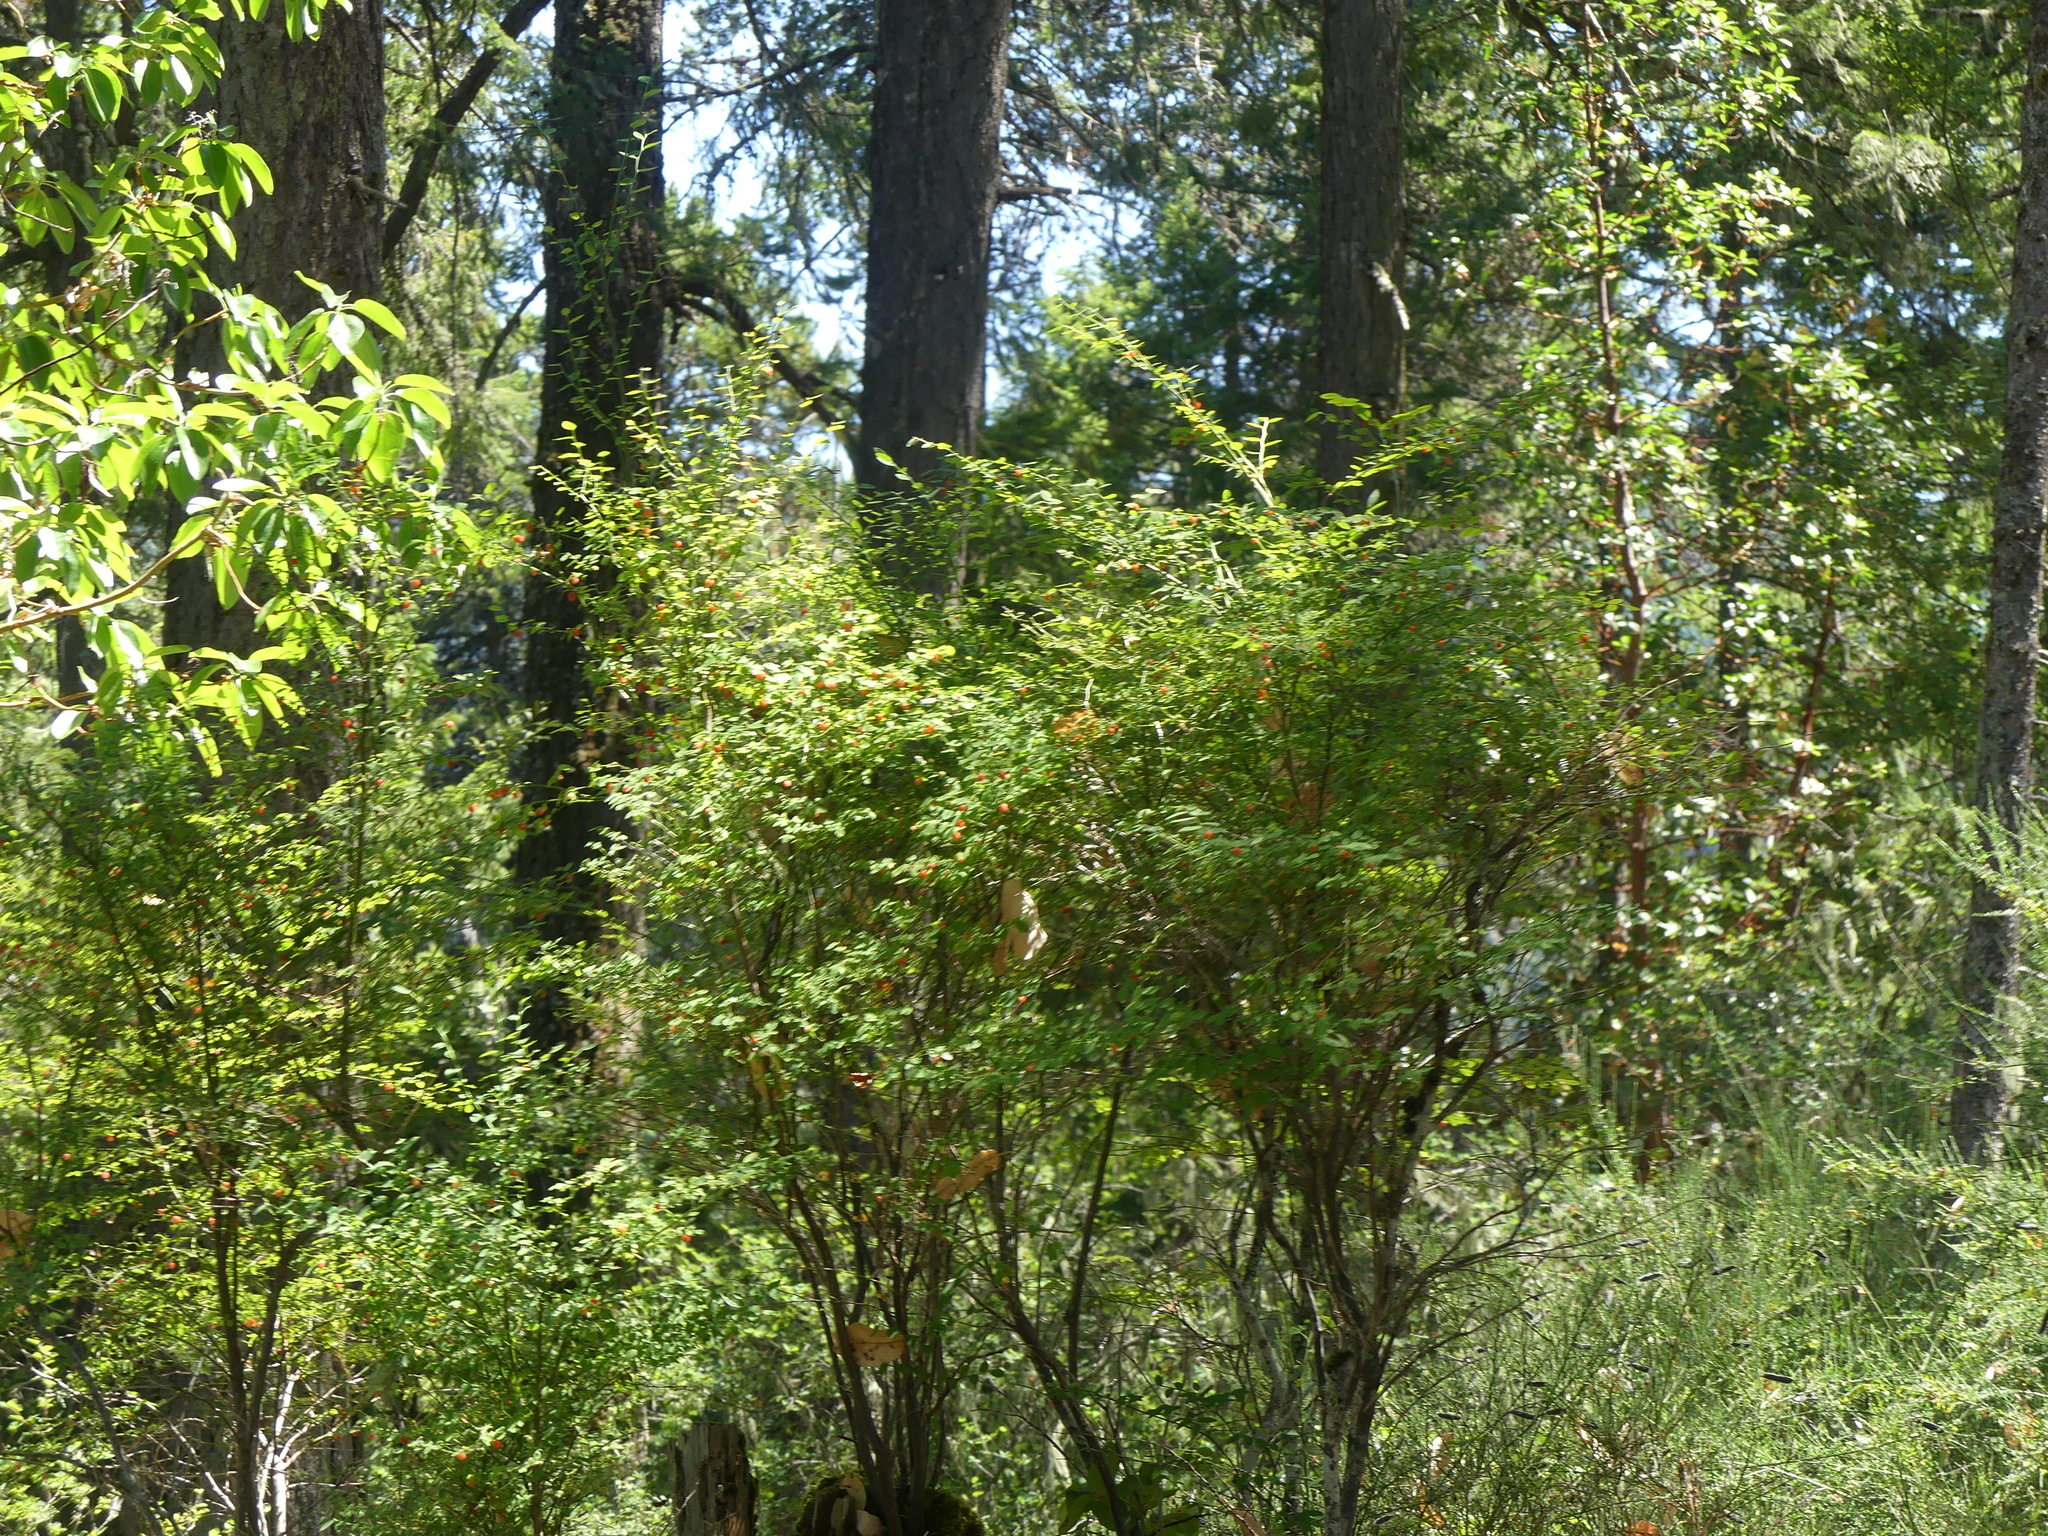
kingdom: Plantae
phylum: Tracheophyta
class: Magnoliopsida
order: Ericales
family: Ericaceae
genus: Vaccinium
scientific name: Vaccinium parvifolium
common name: Red-huckleberry
